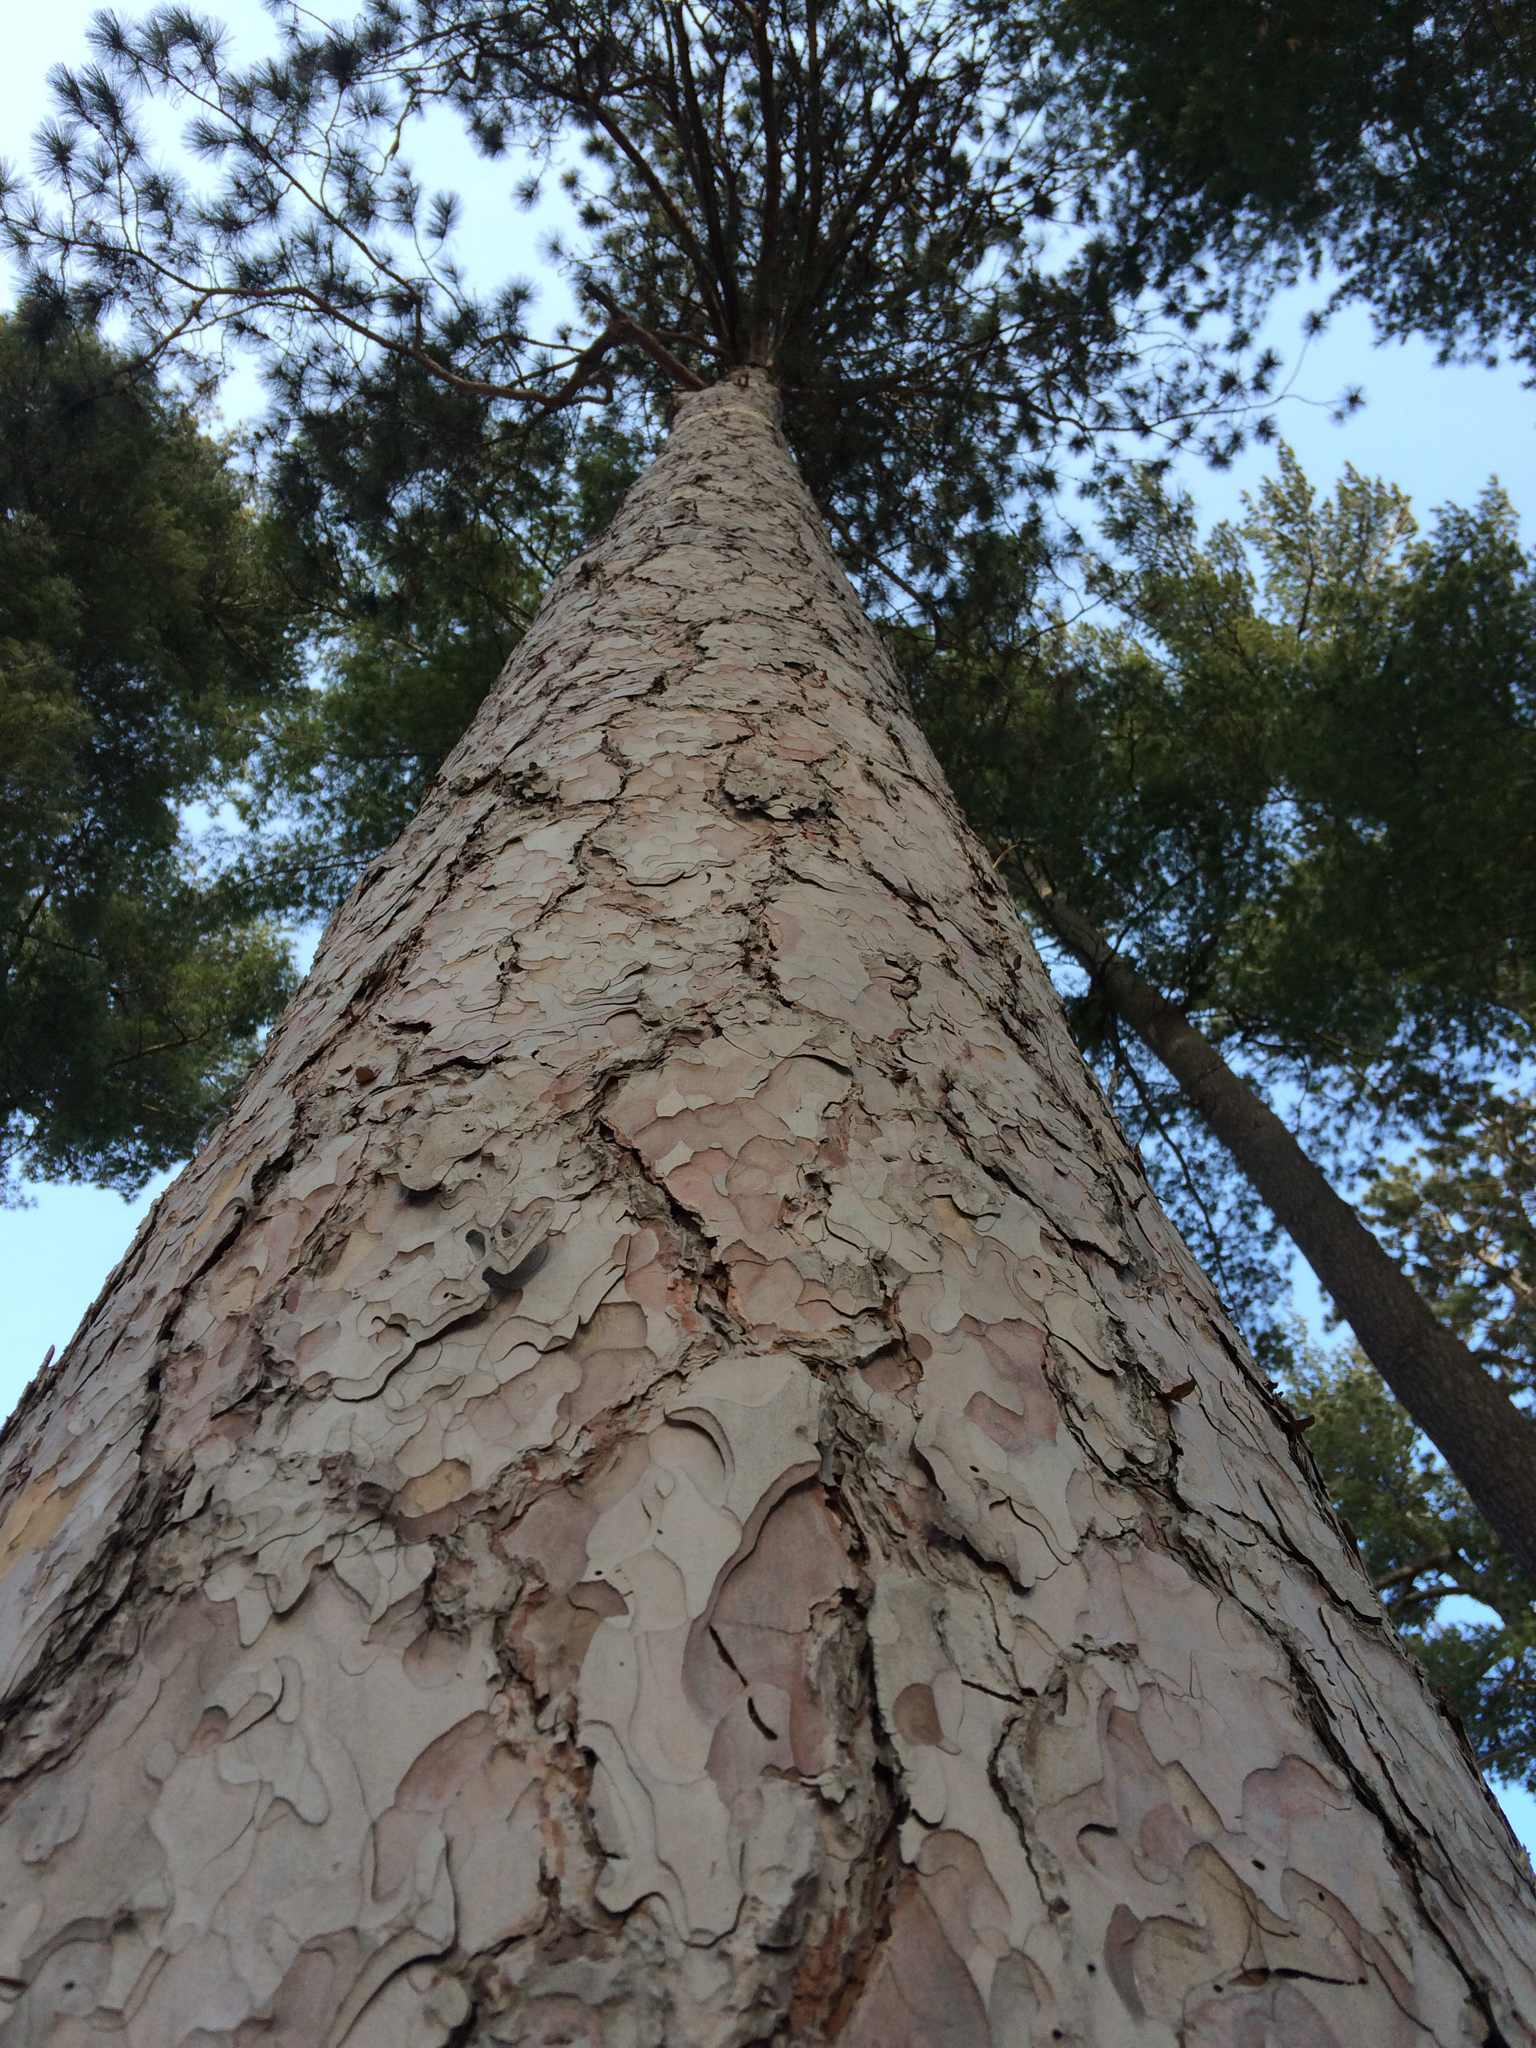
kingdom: Plantae
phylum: Tracheophyta
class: Pinopsida
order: Pinales
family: Pinaceae
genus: Pinus
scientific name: Pinus resinosa
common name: Norway pine
